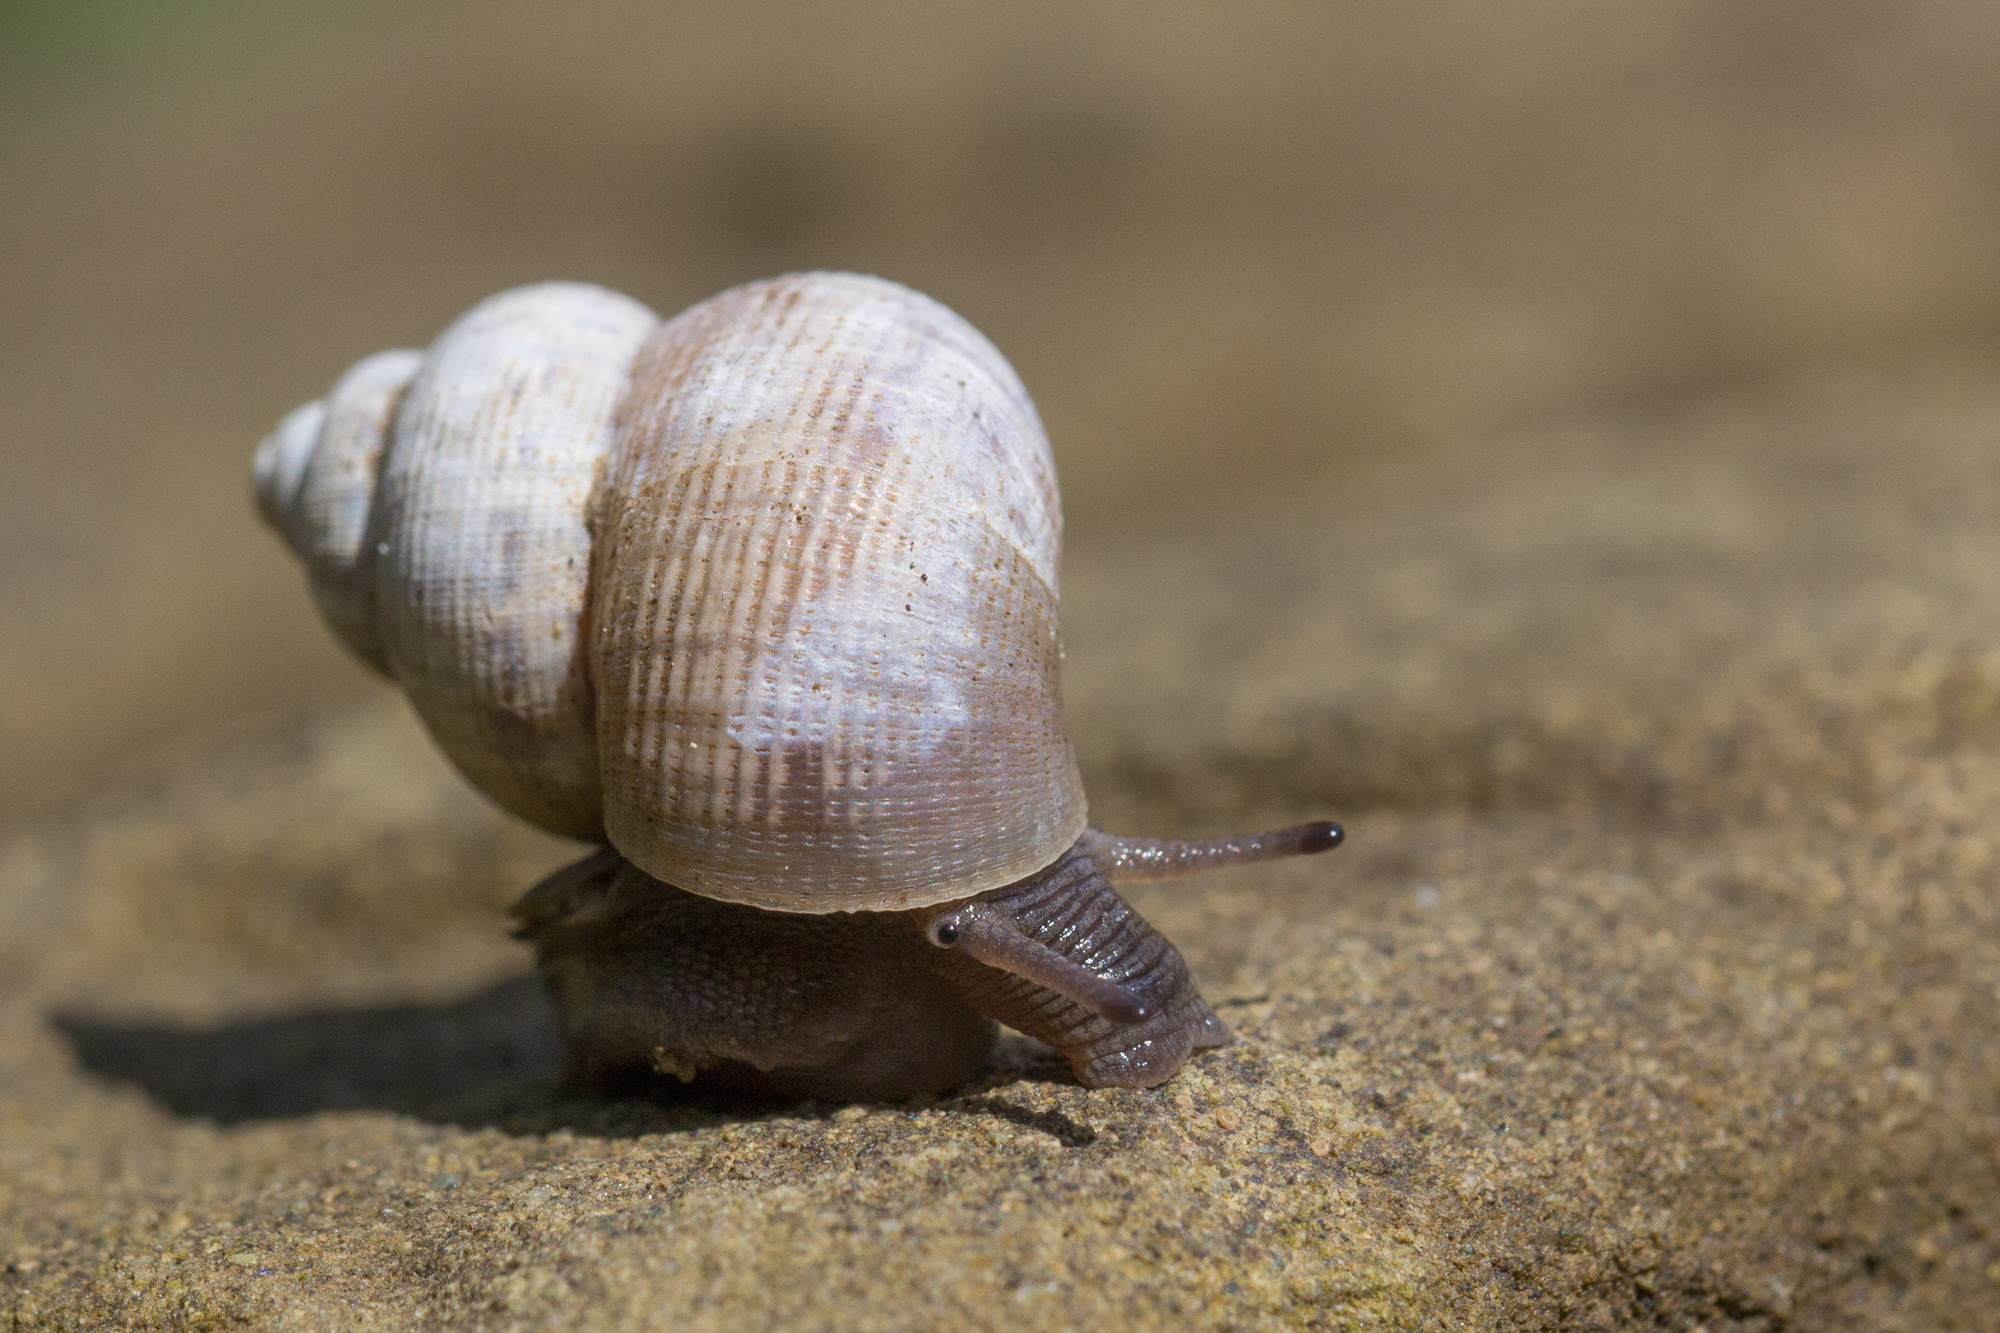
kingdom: Animalia
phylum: Mollusca
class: Gastropoda
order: Littorinimorpha
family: Pomatiidae
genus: Pomatias
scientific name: Pomatias elegans
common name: Red-mouthed snail
